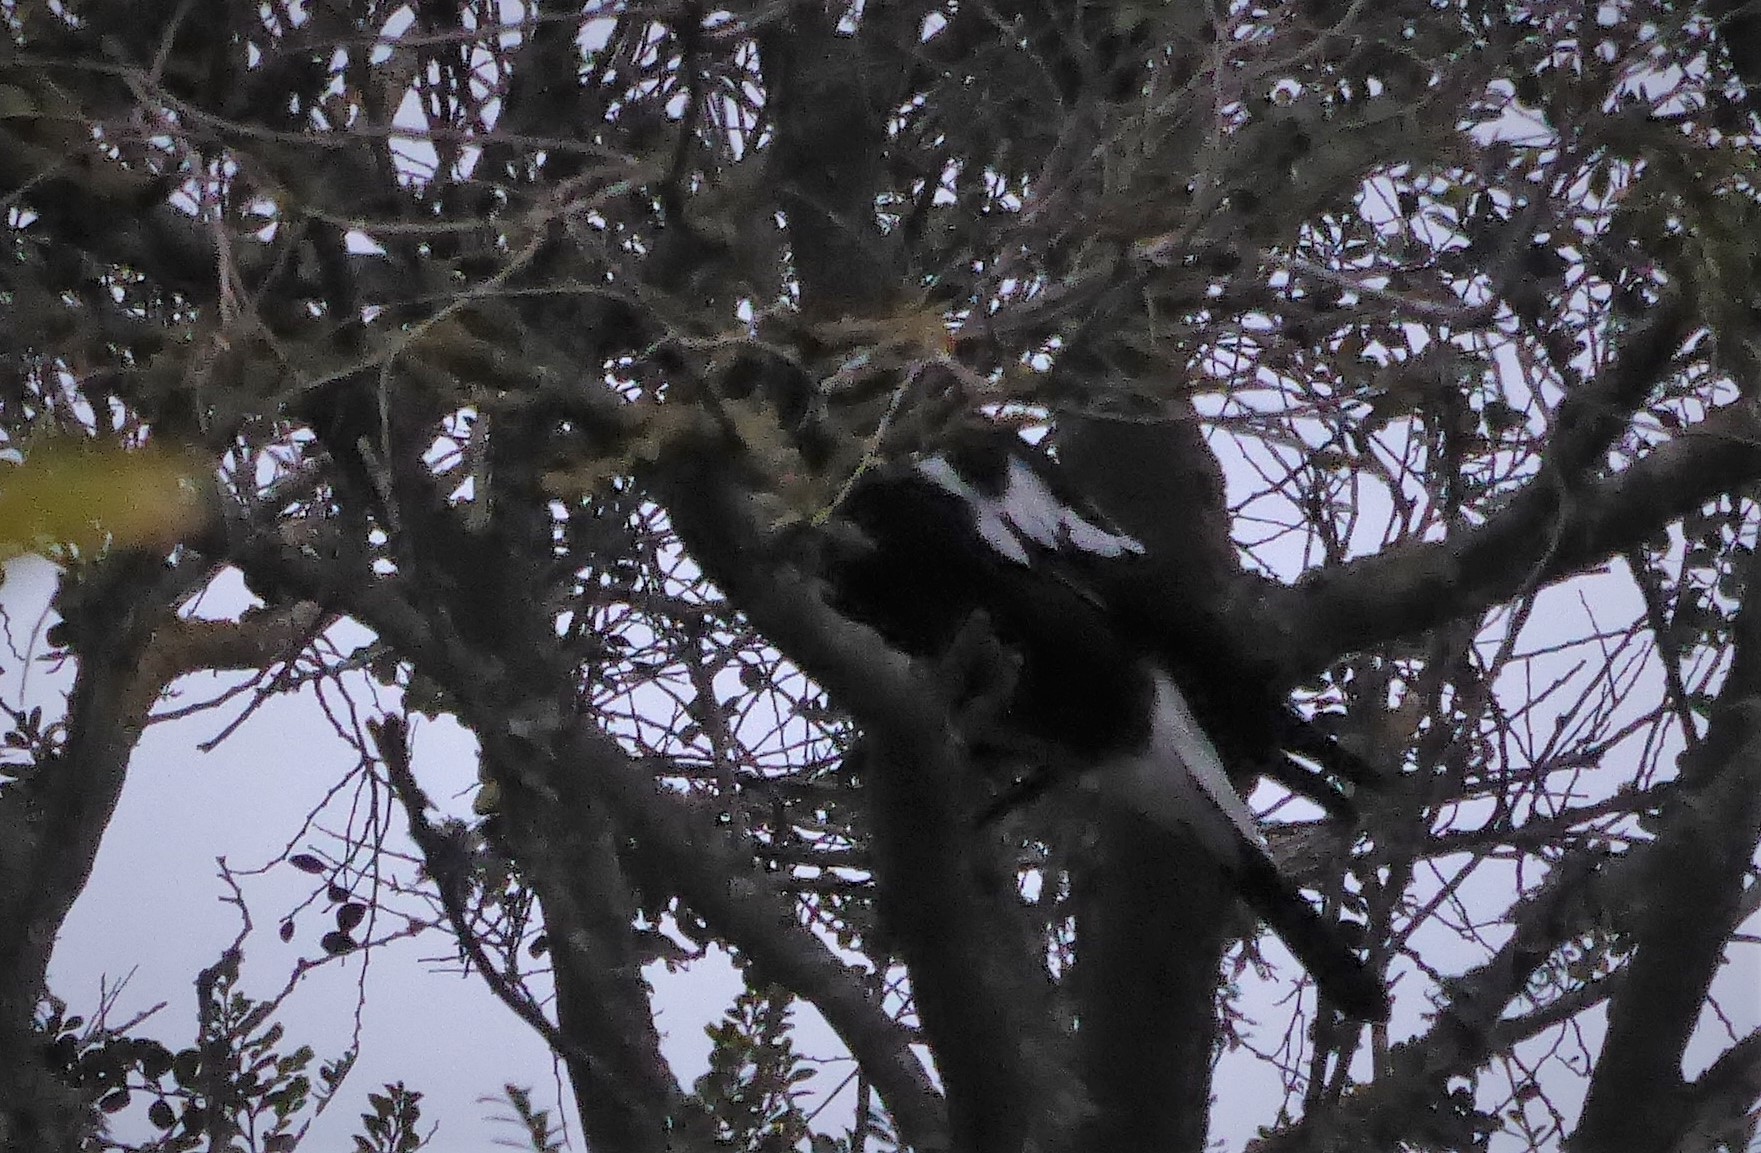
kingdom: Animalia
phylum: Chordata
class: Aves
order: Passeriformes
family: Cracticidae
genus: Gymnorhina
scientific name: Gymnorhina tibicen
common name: Australian magpie
